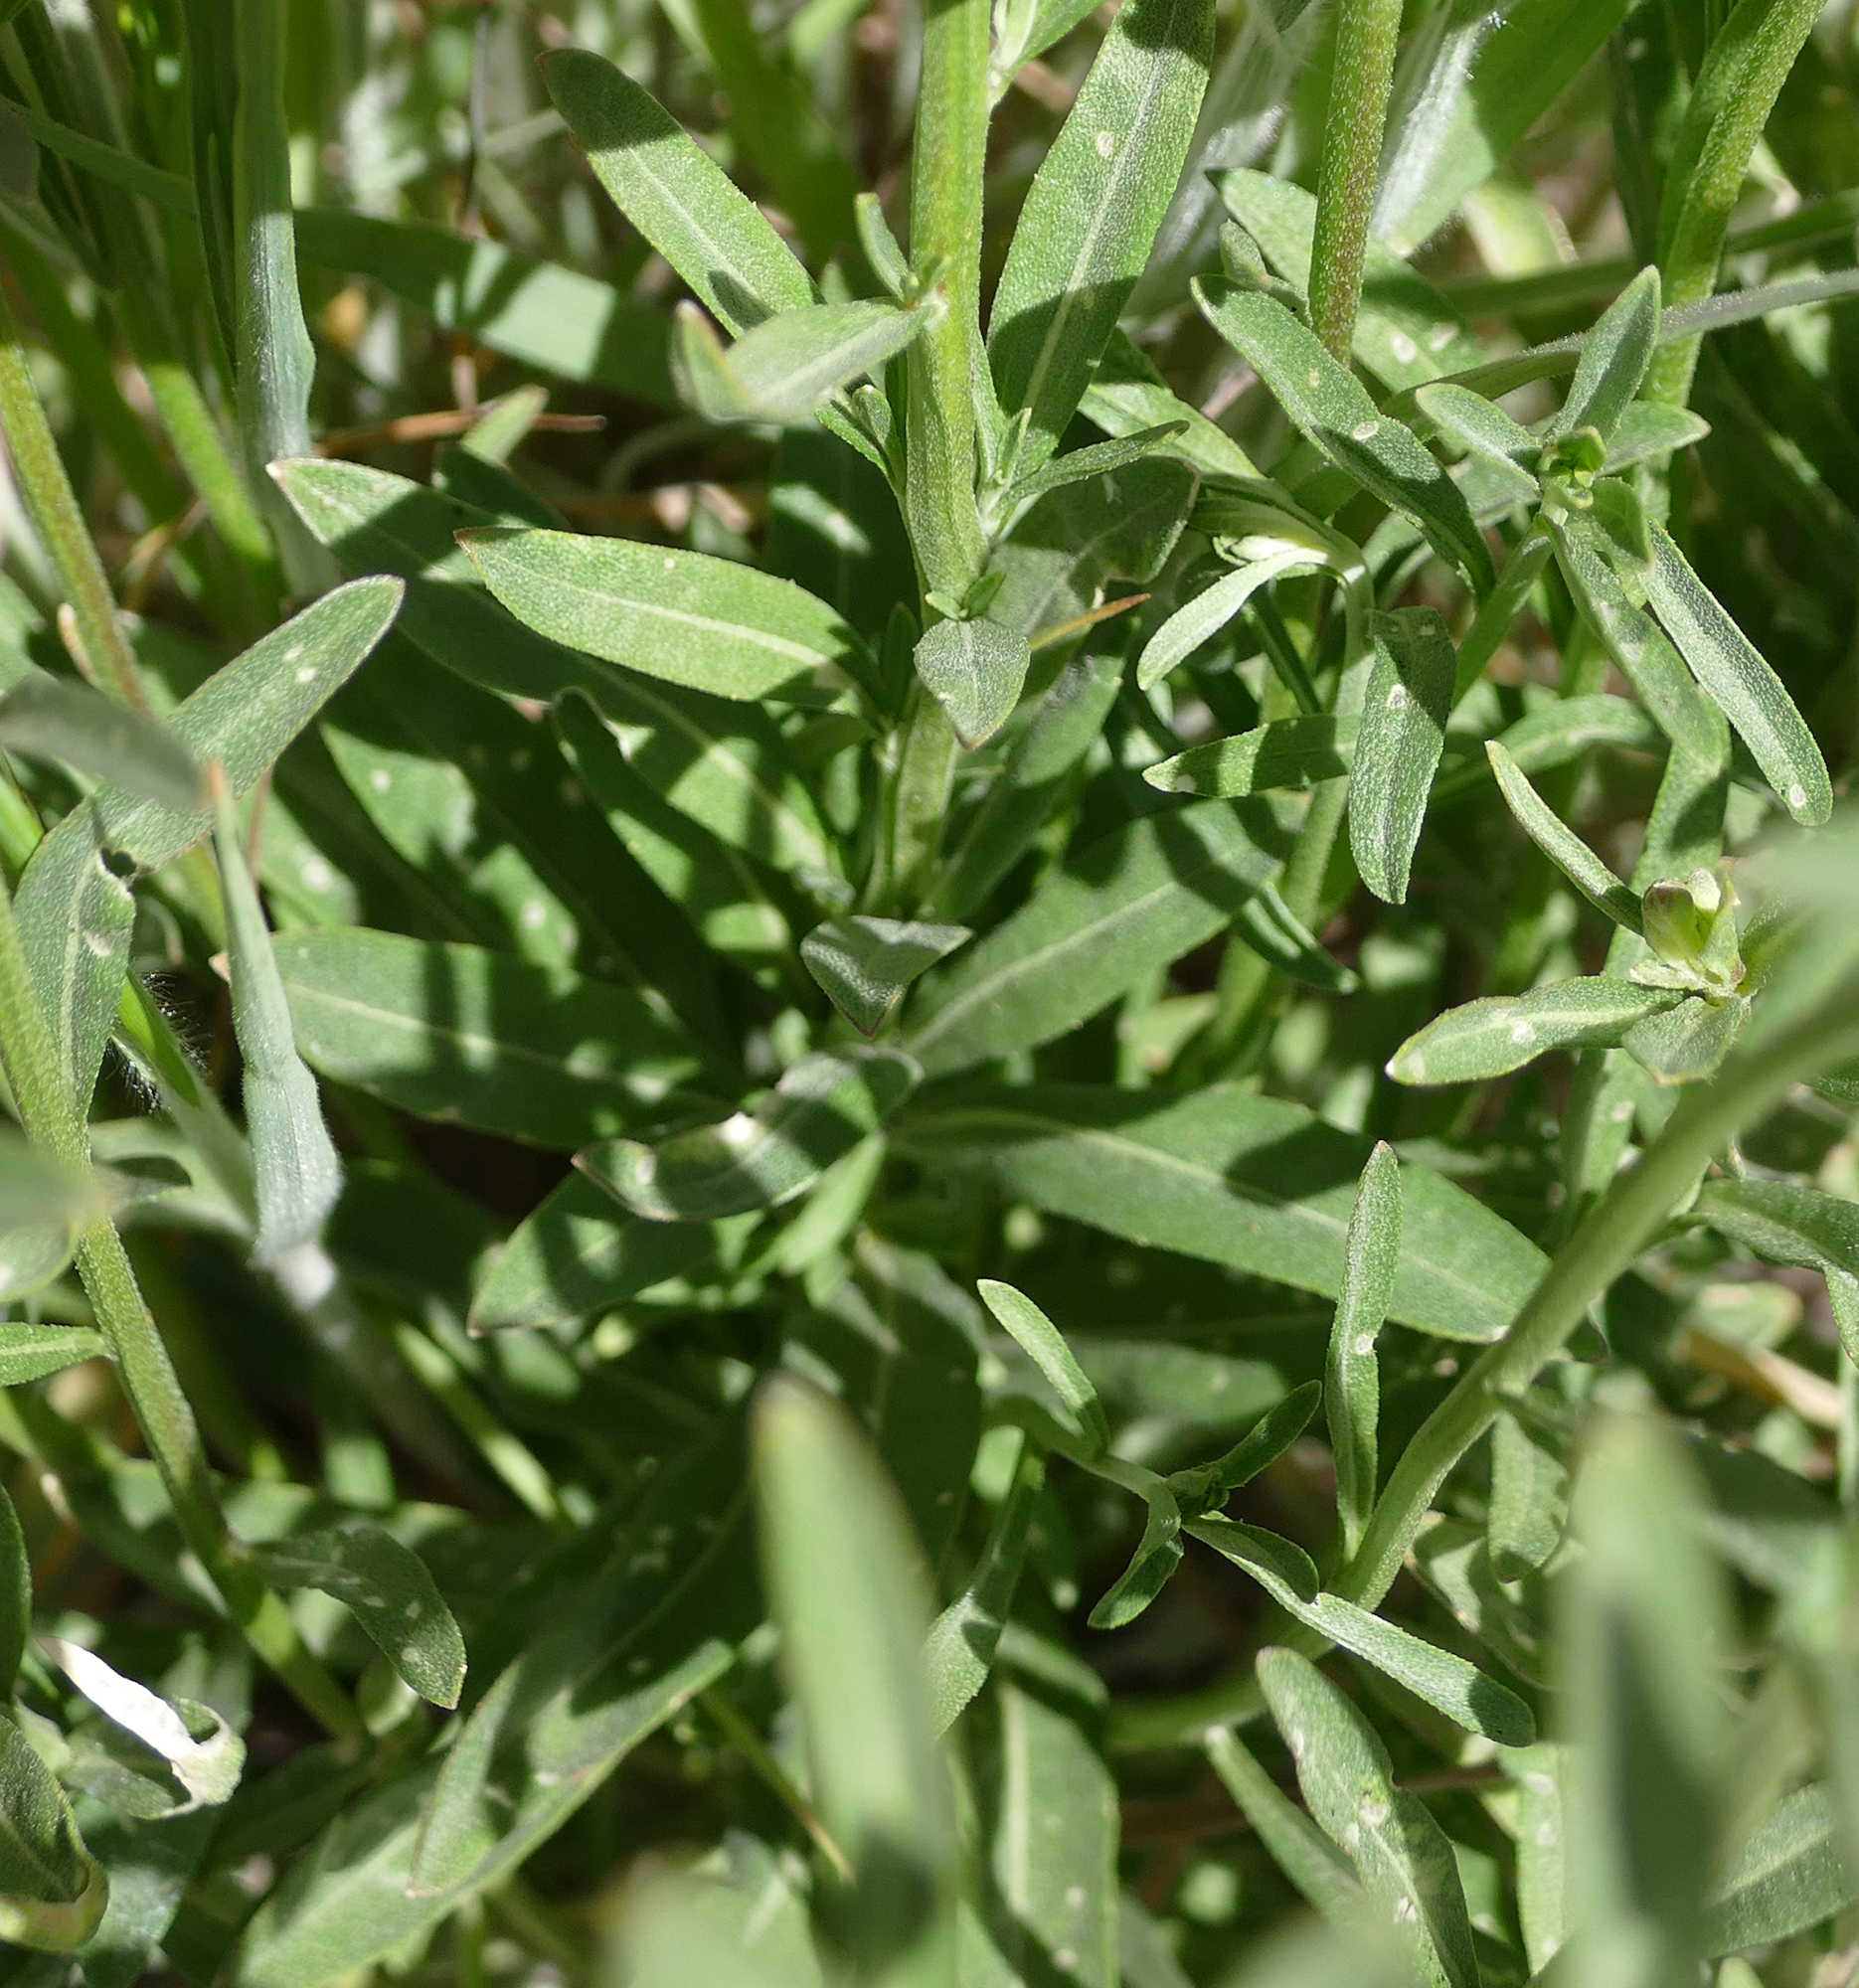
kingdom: Plantae
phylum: Tracheophyta
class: Magnoliopsida
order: Brassicales
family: Brassicaceae
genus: Erysimum
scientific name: Erysimum capitatum
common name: Western wallflower
